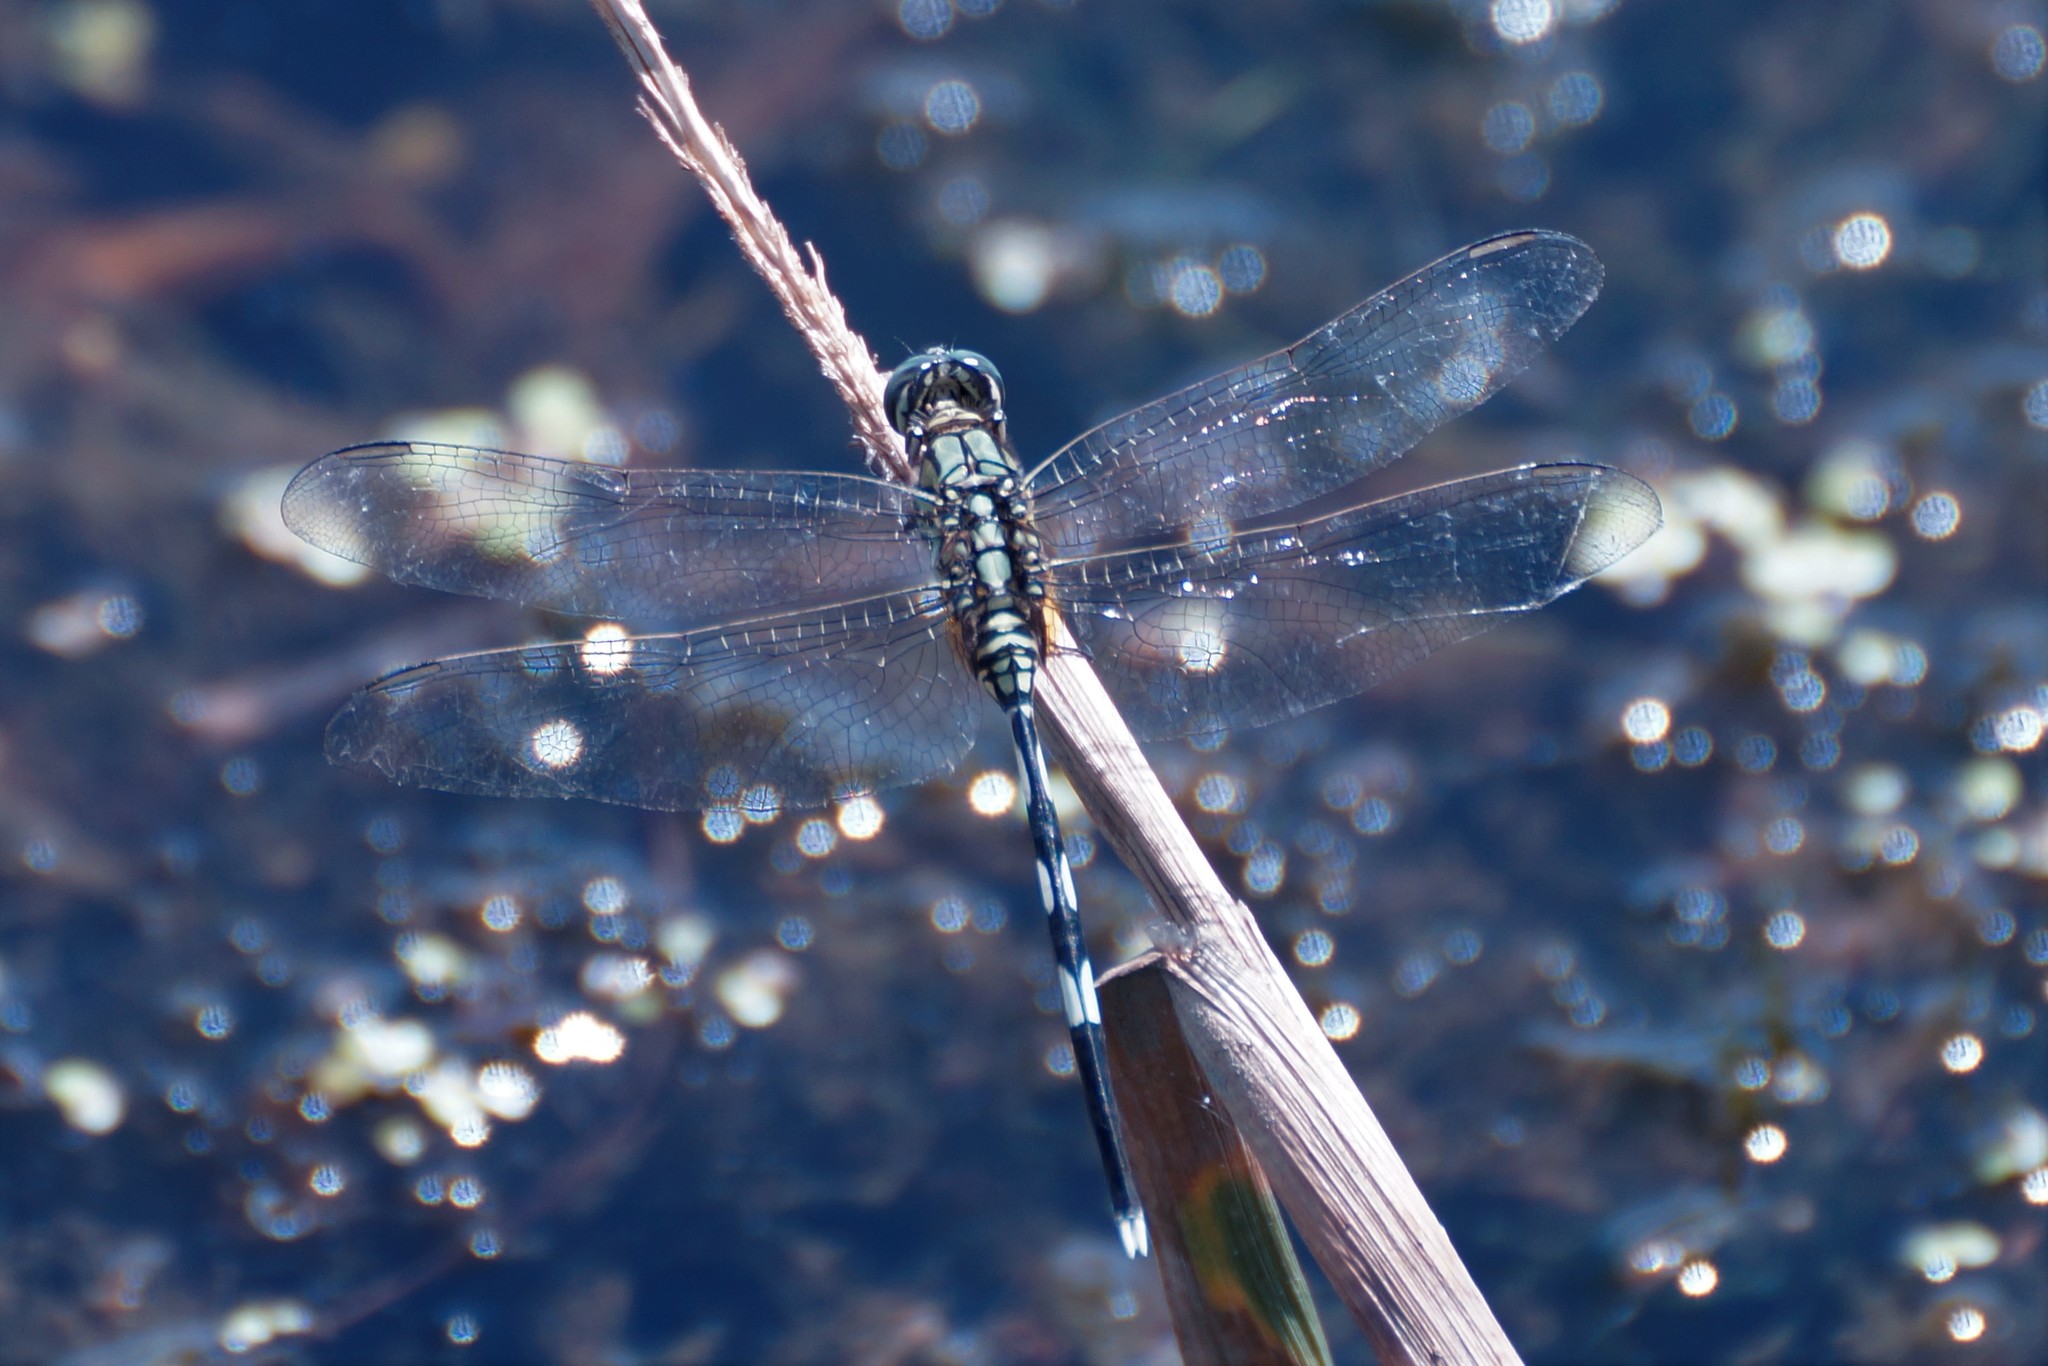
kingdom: Animalia
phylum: Arthropoda
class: Insecta
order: Odonata
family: Libellulidae
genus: Orthetrum
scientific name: Orthetrum sabina
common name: Slender skimmer
